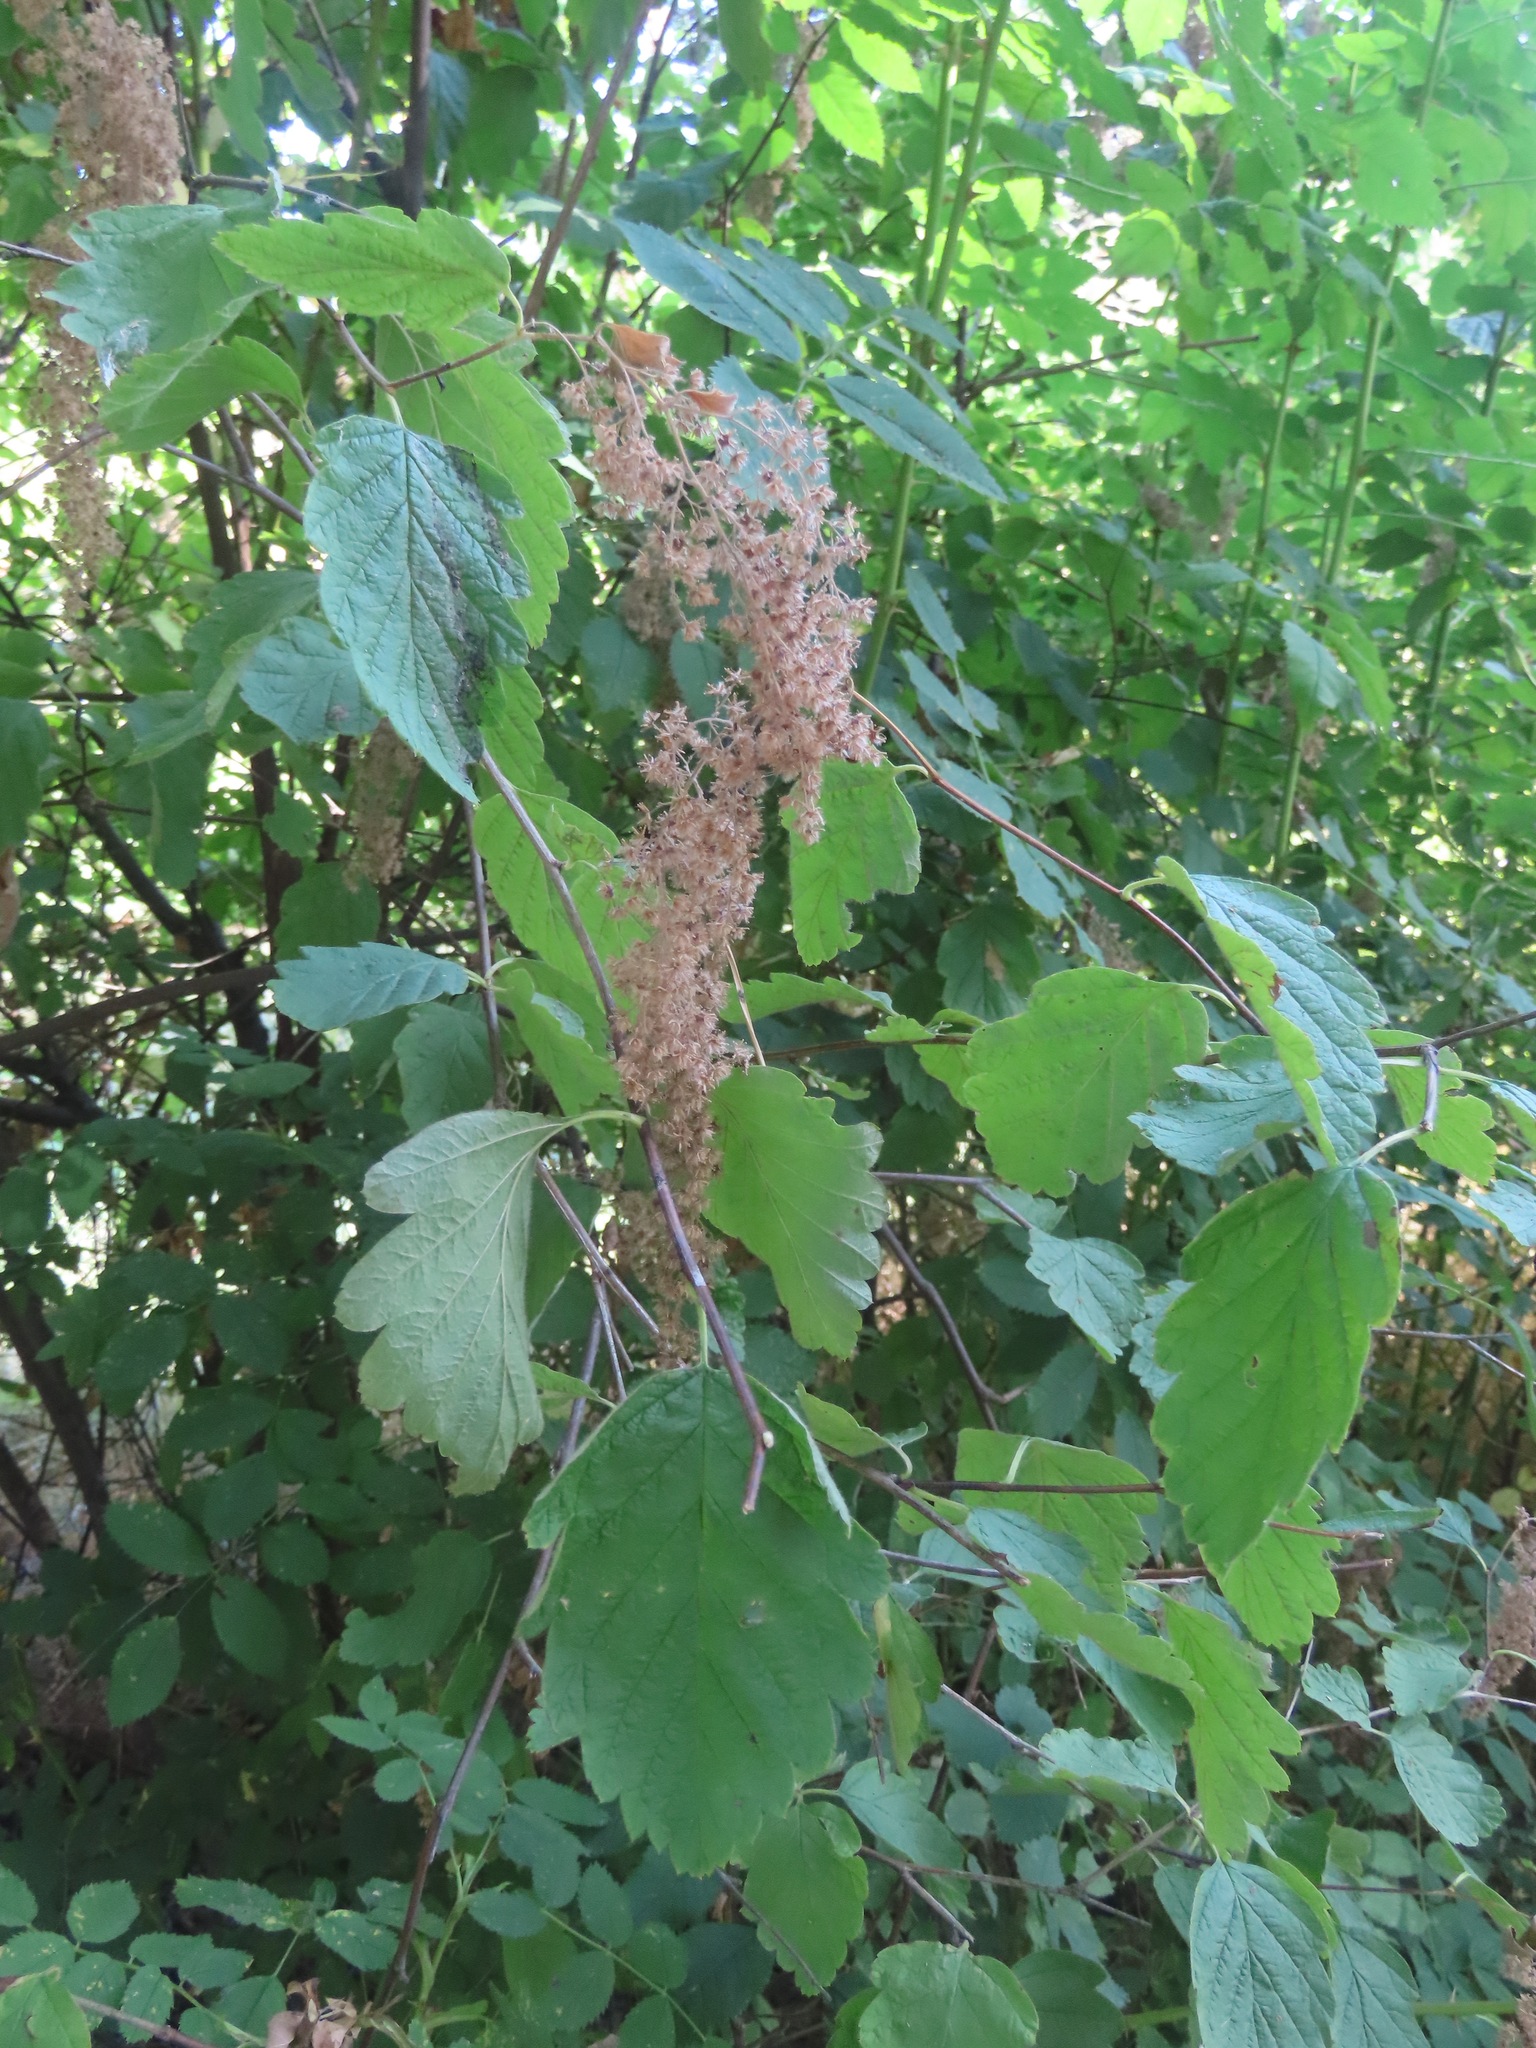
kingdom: Plantae
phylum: Tracheophyta
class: Magnoliopsida
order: Rosales
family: Rosaceae
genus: Holodiscus
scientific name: Holodiscus discolor
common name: Oceanspray
